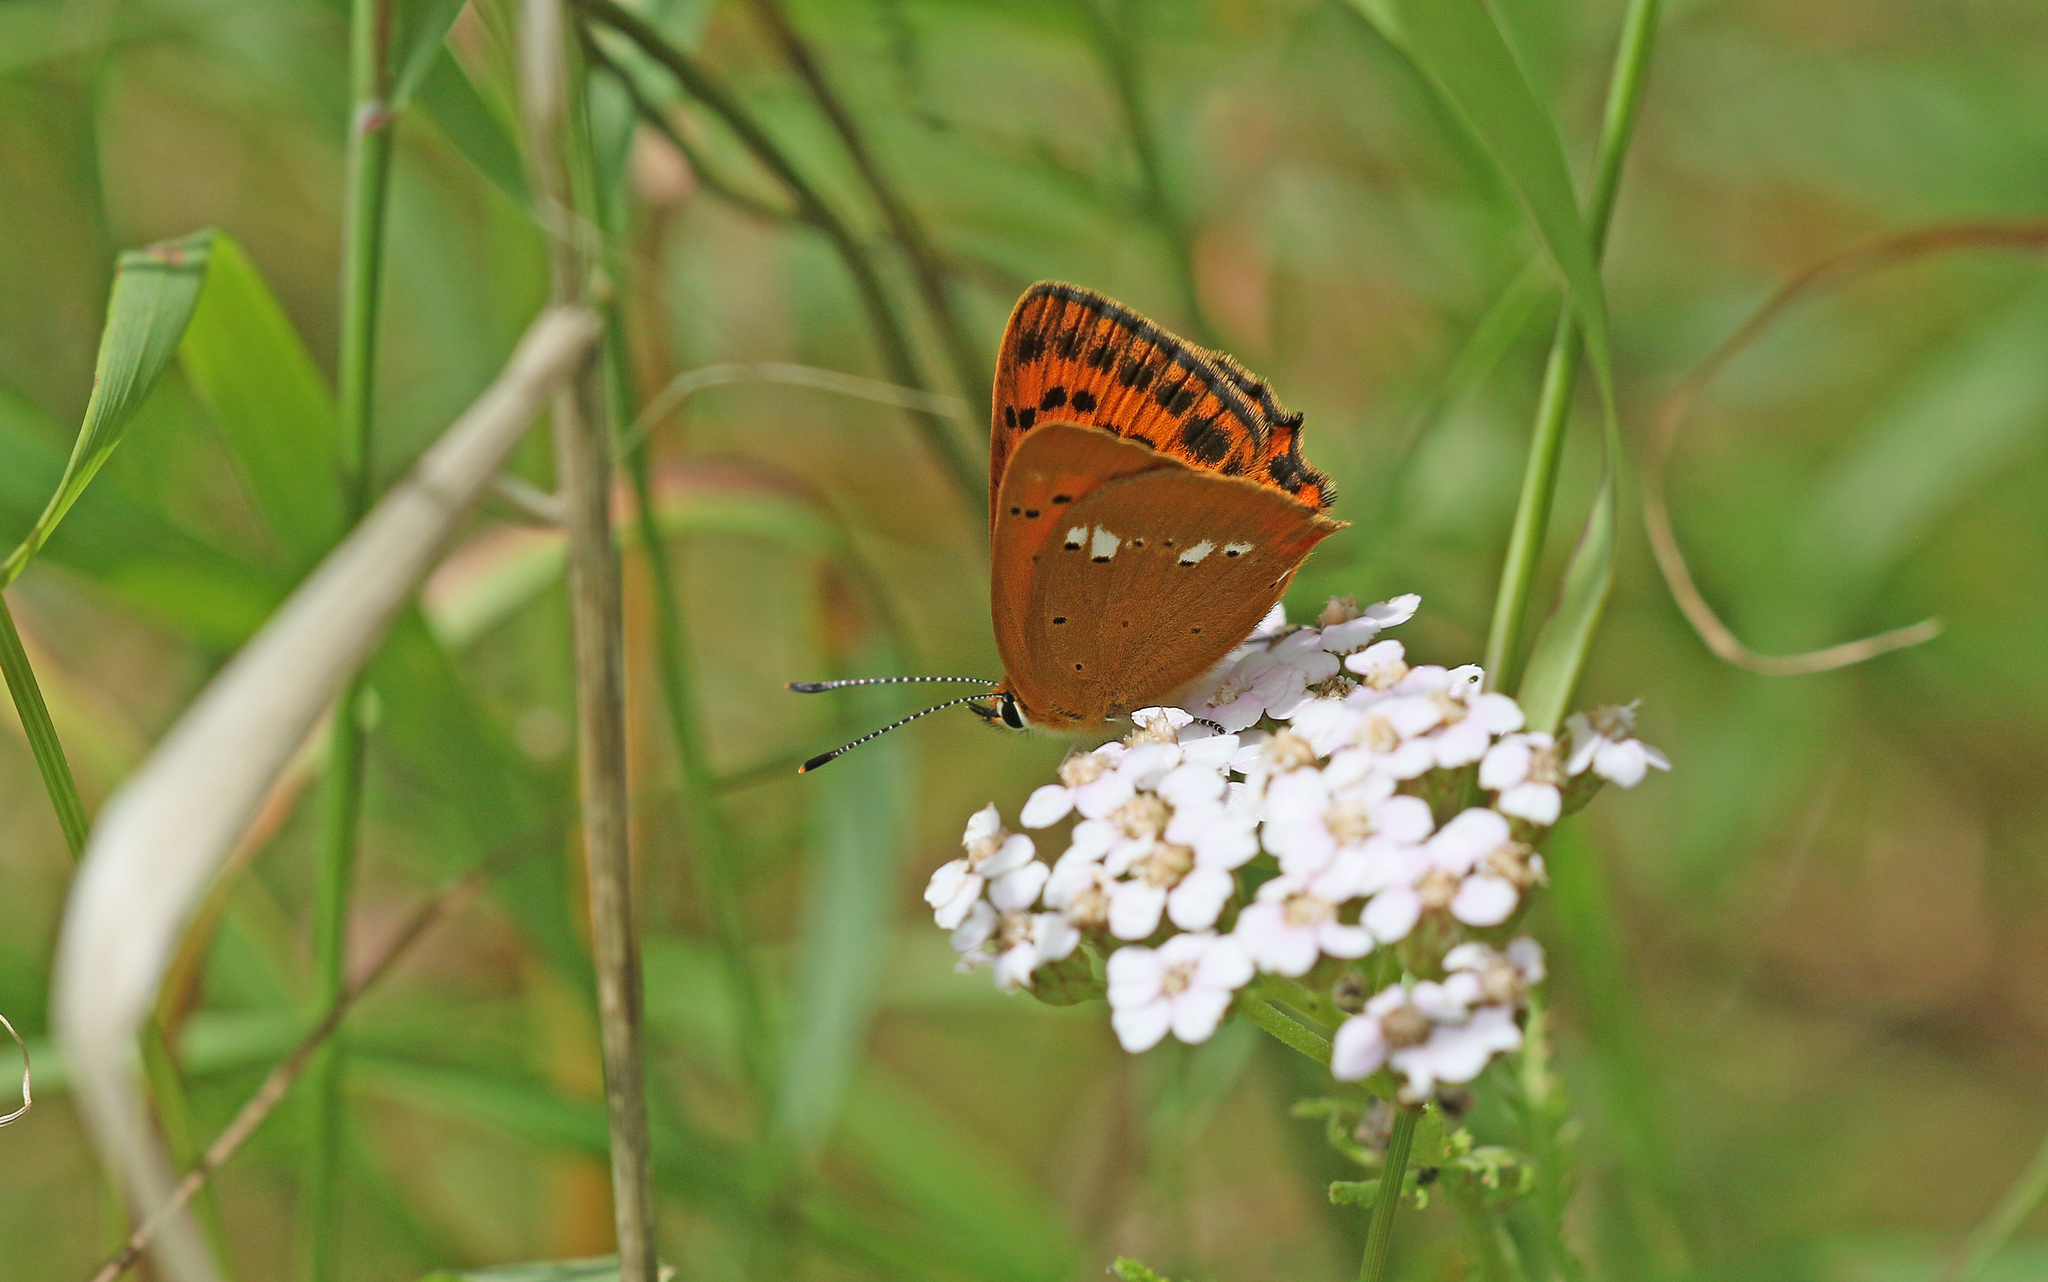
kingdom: Animalia
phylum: Arthropoda
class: Insecta
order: Lepidoptera
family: Lycaenidae
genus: Lycaena
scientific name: Lycaena virgaureae
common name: Scarce copper
